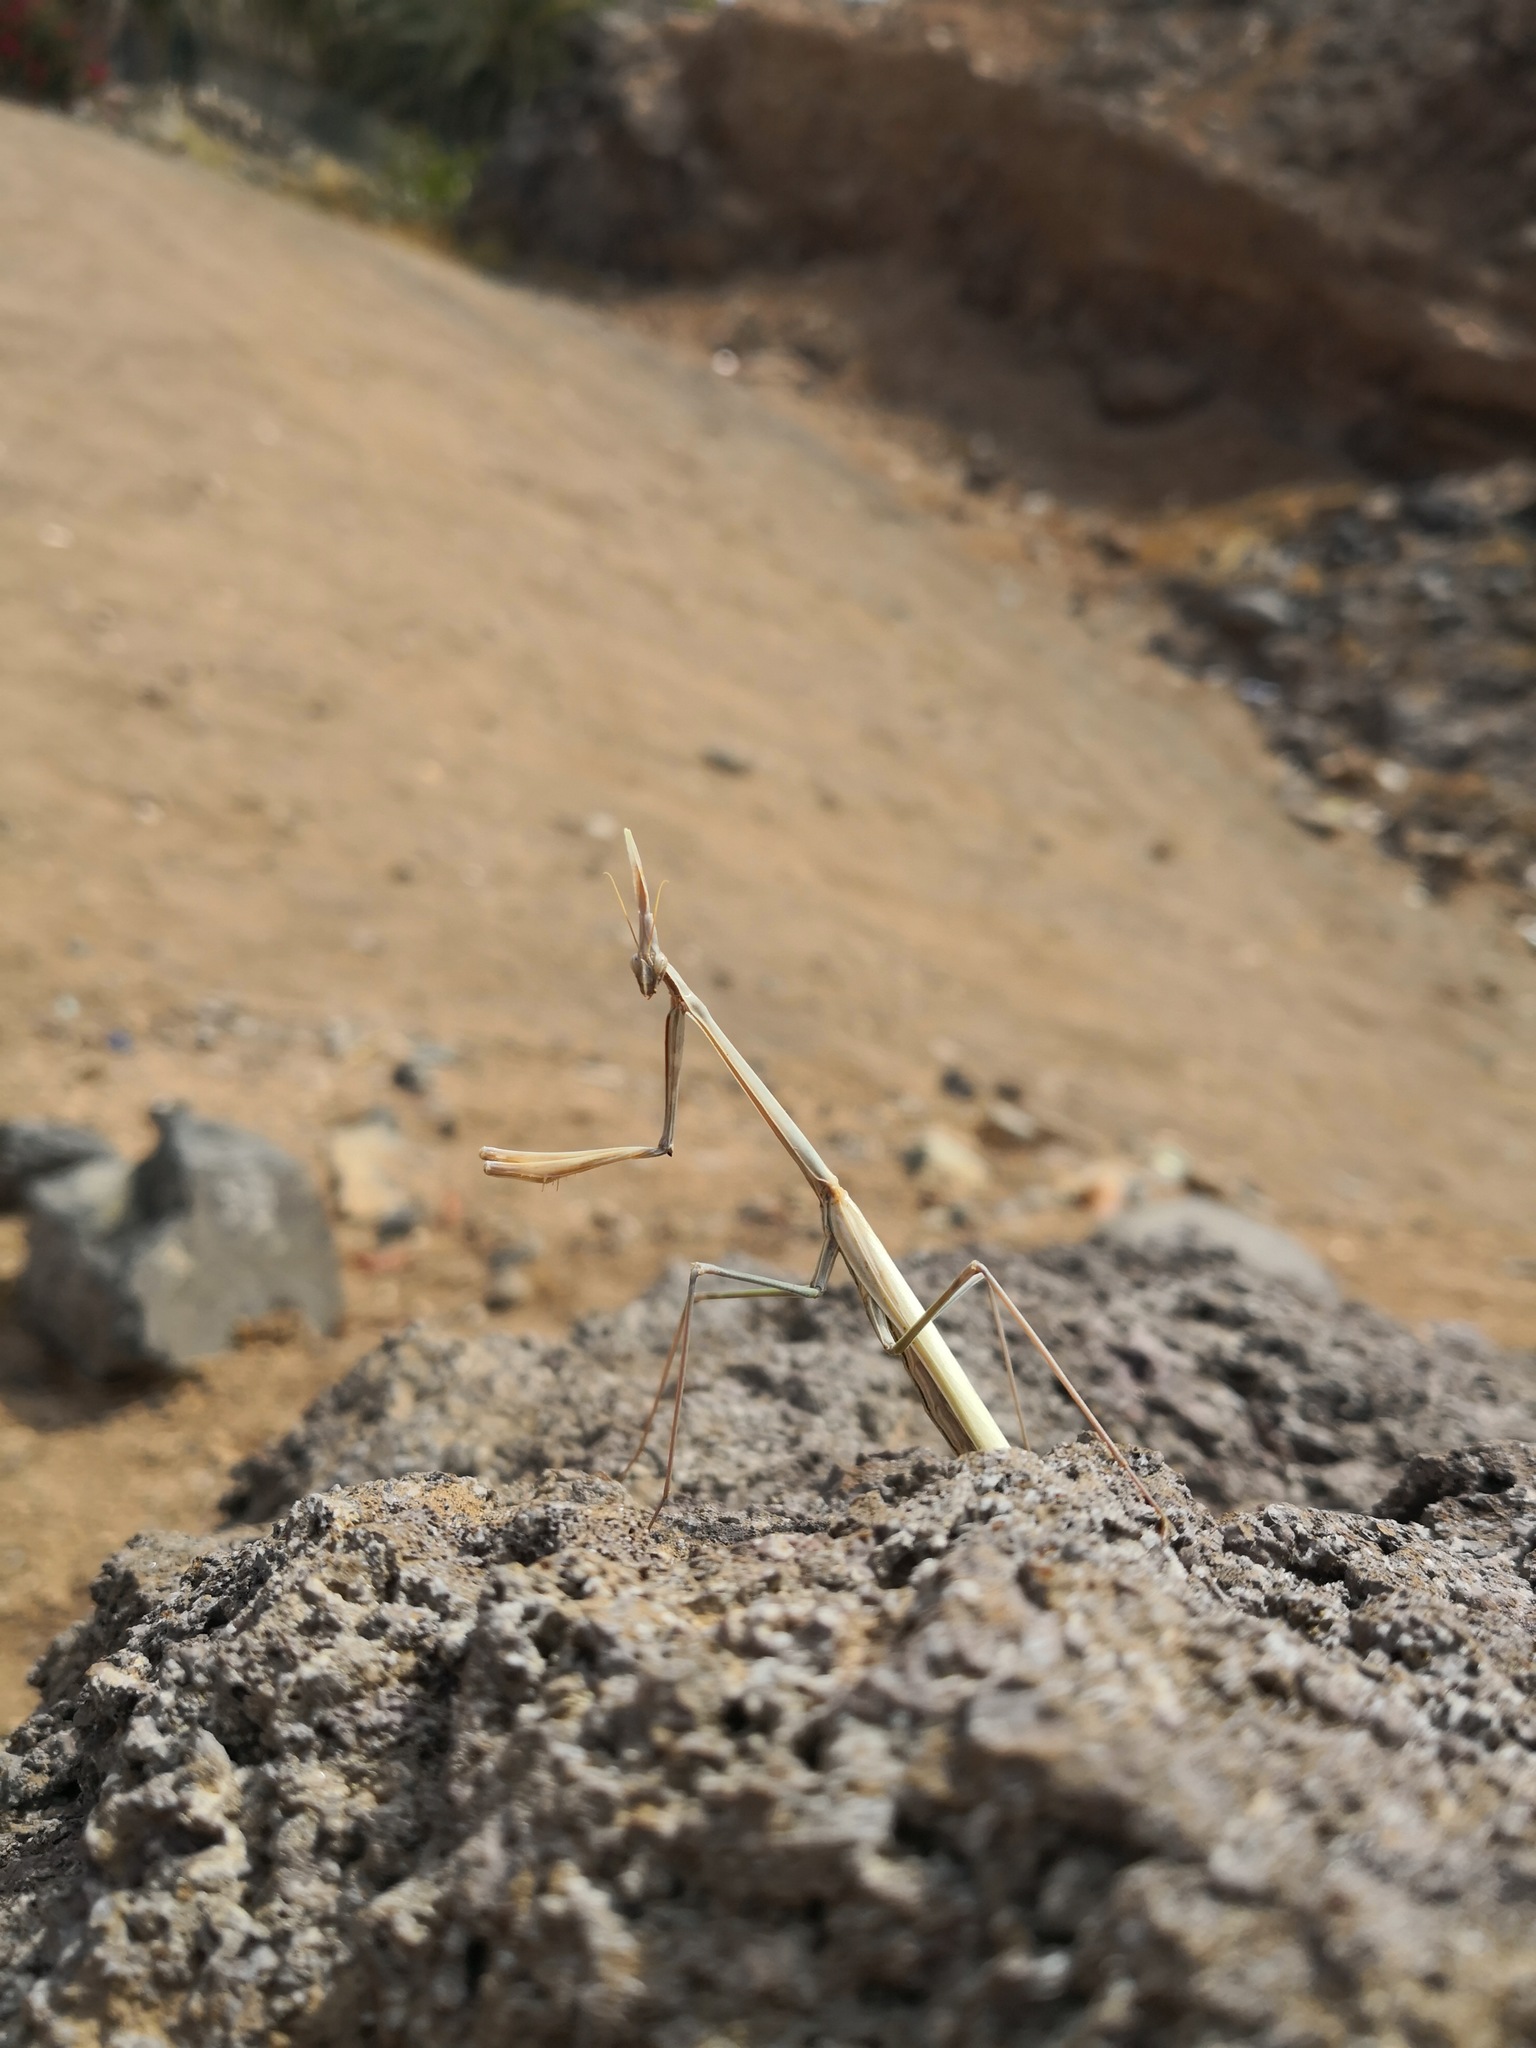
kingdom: Animalia
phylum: Arthropoda
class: Insecta
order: Mantodea
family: Empusidae
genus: Hypsicorypha
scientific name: Hypsicorypha gracilis
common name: Sublime conehead mantis
